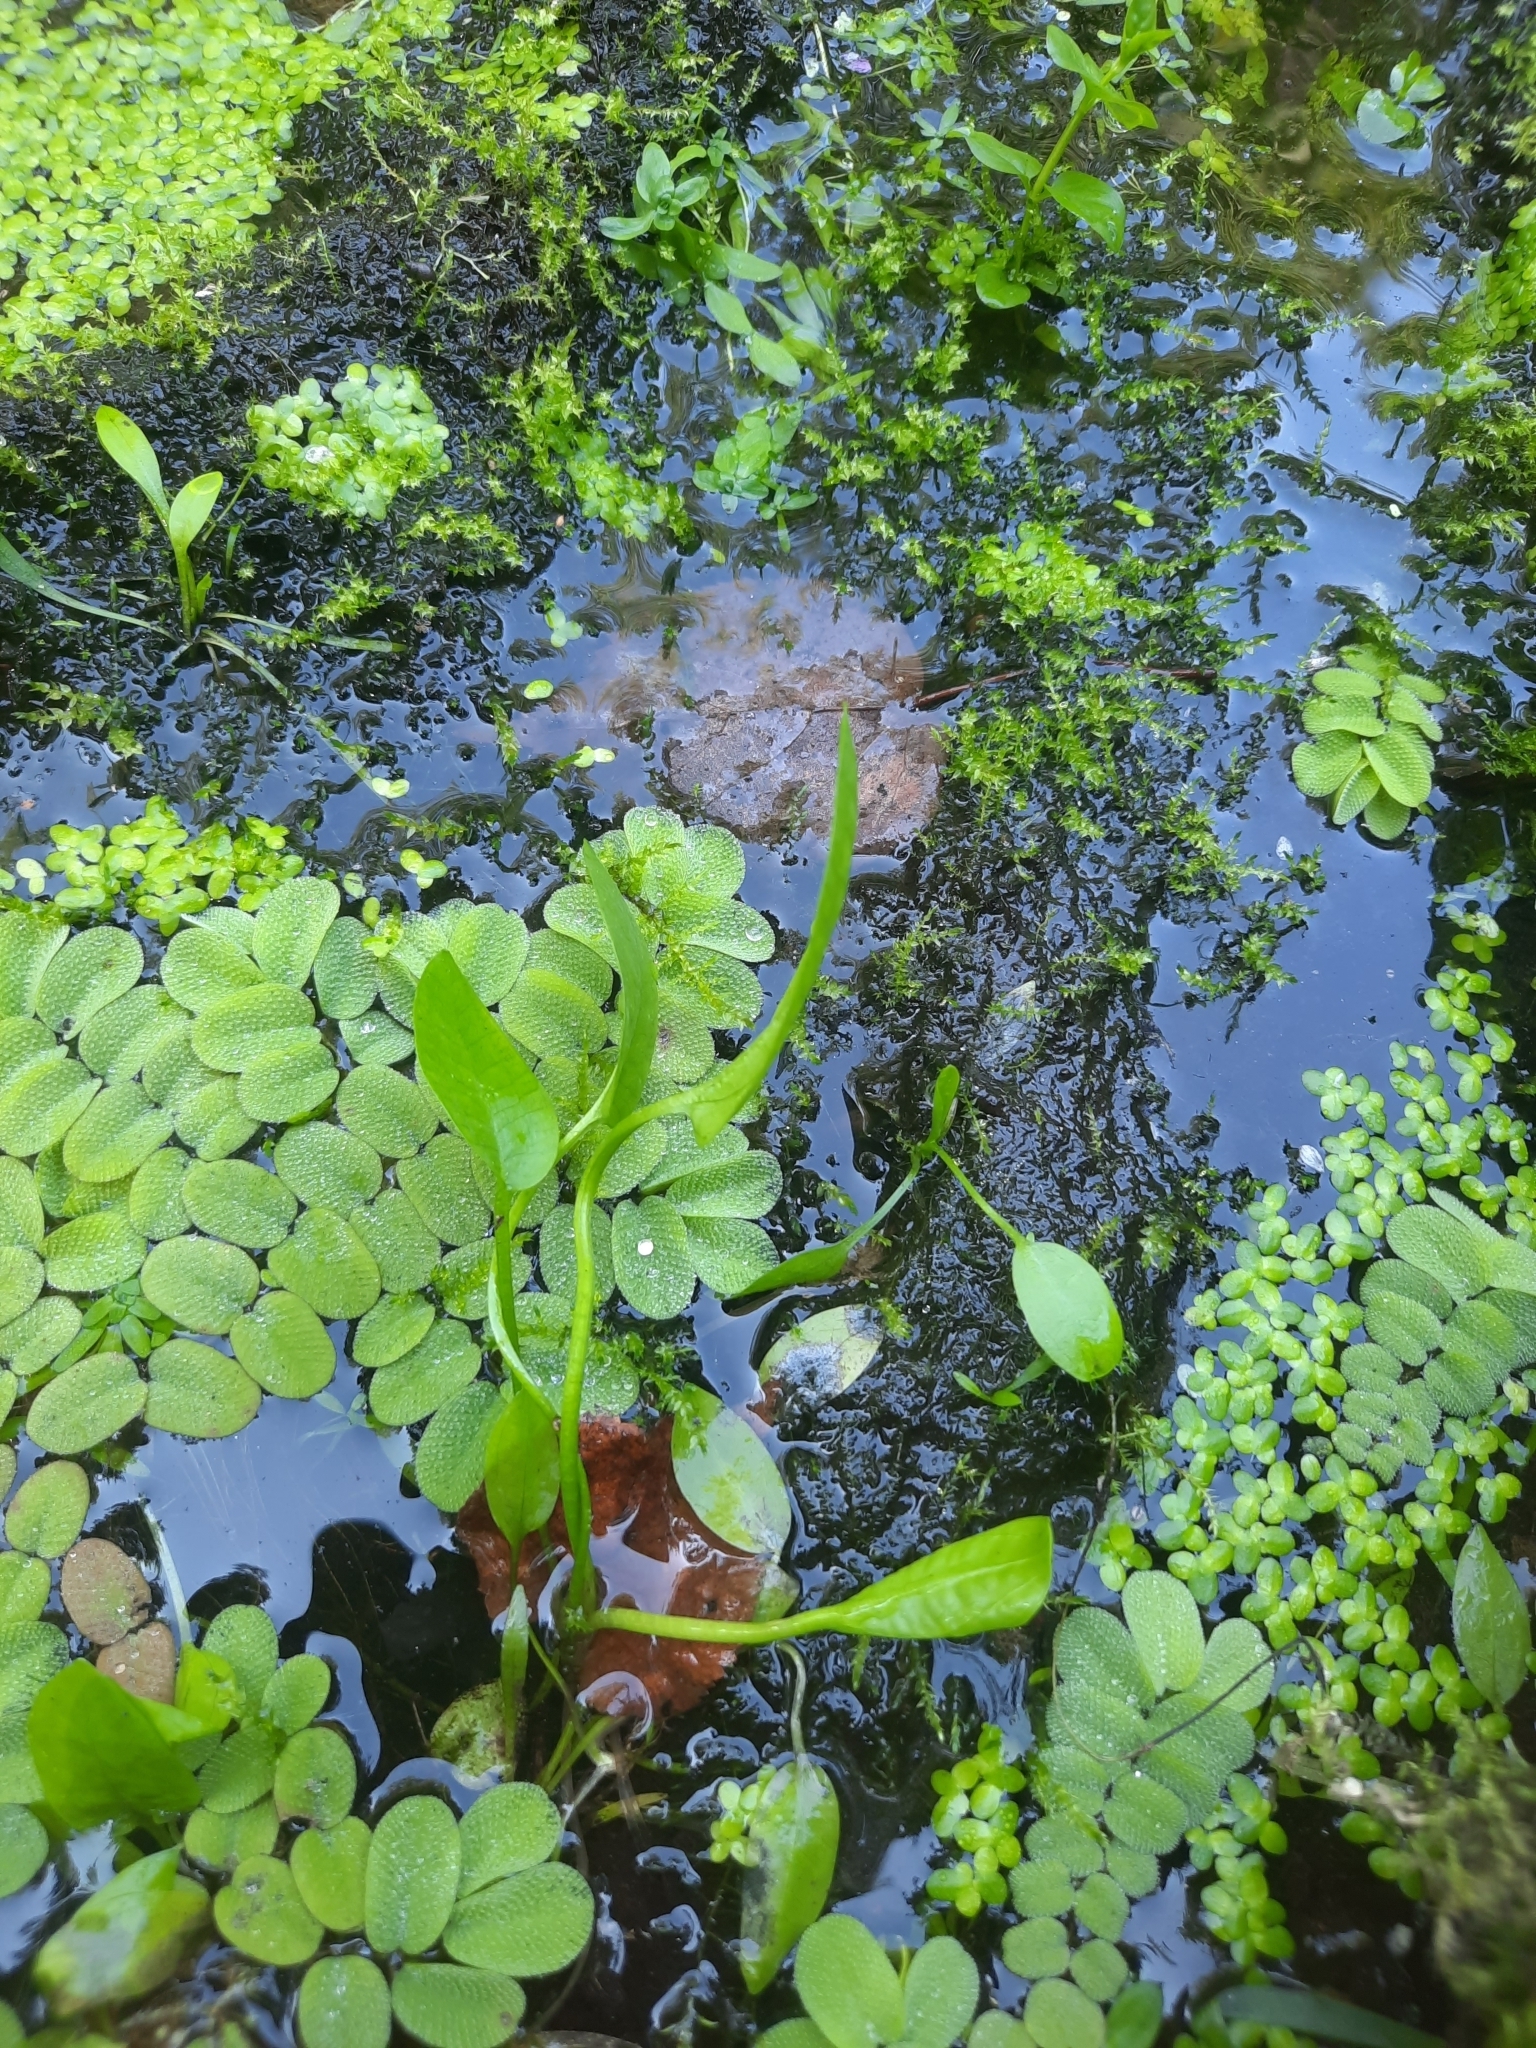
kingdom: Plantae
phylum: Tracheophyta
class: Polypodiopsida
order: Salviniales
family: Salviniaceae
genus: Salvinia
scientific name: Salvinia natans
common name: Floating fern
